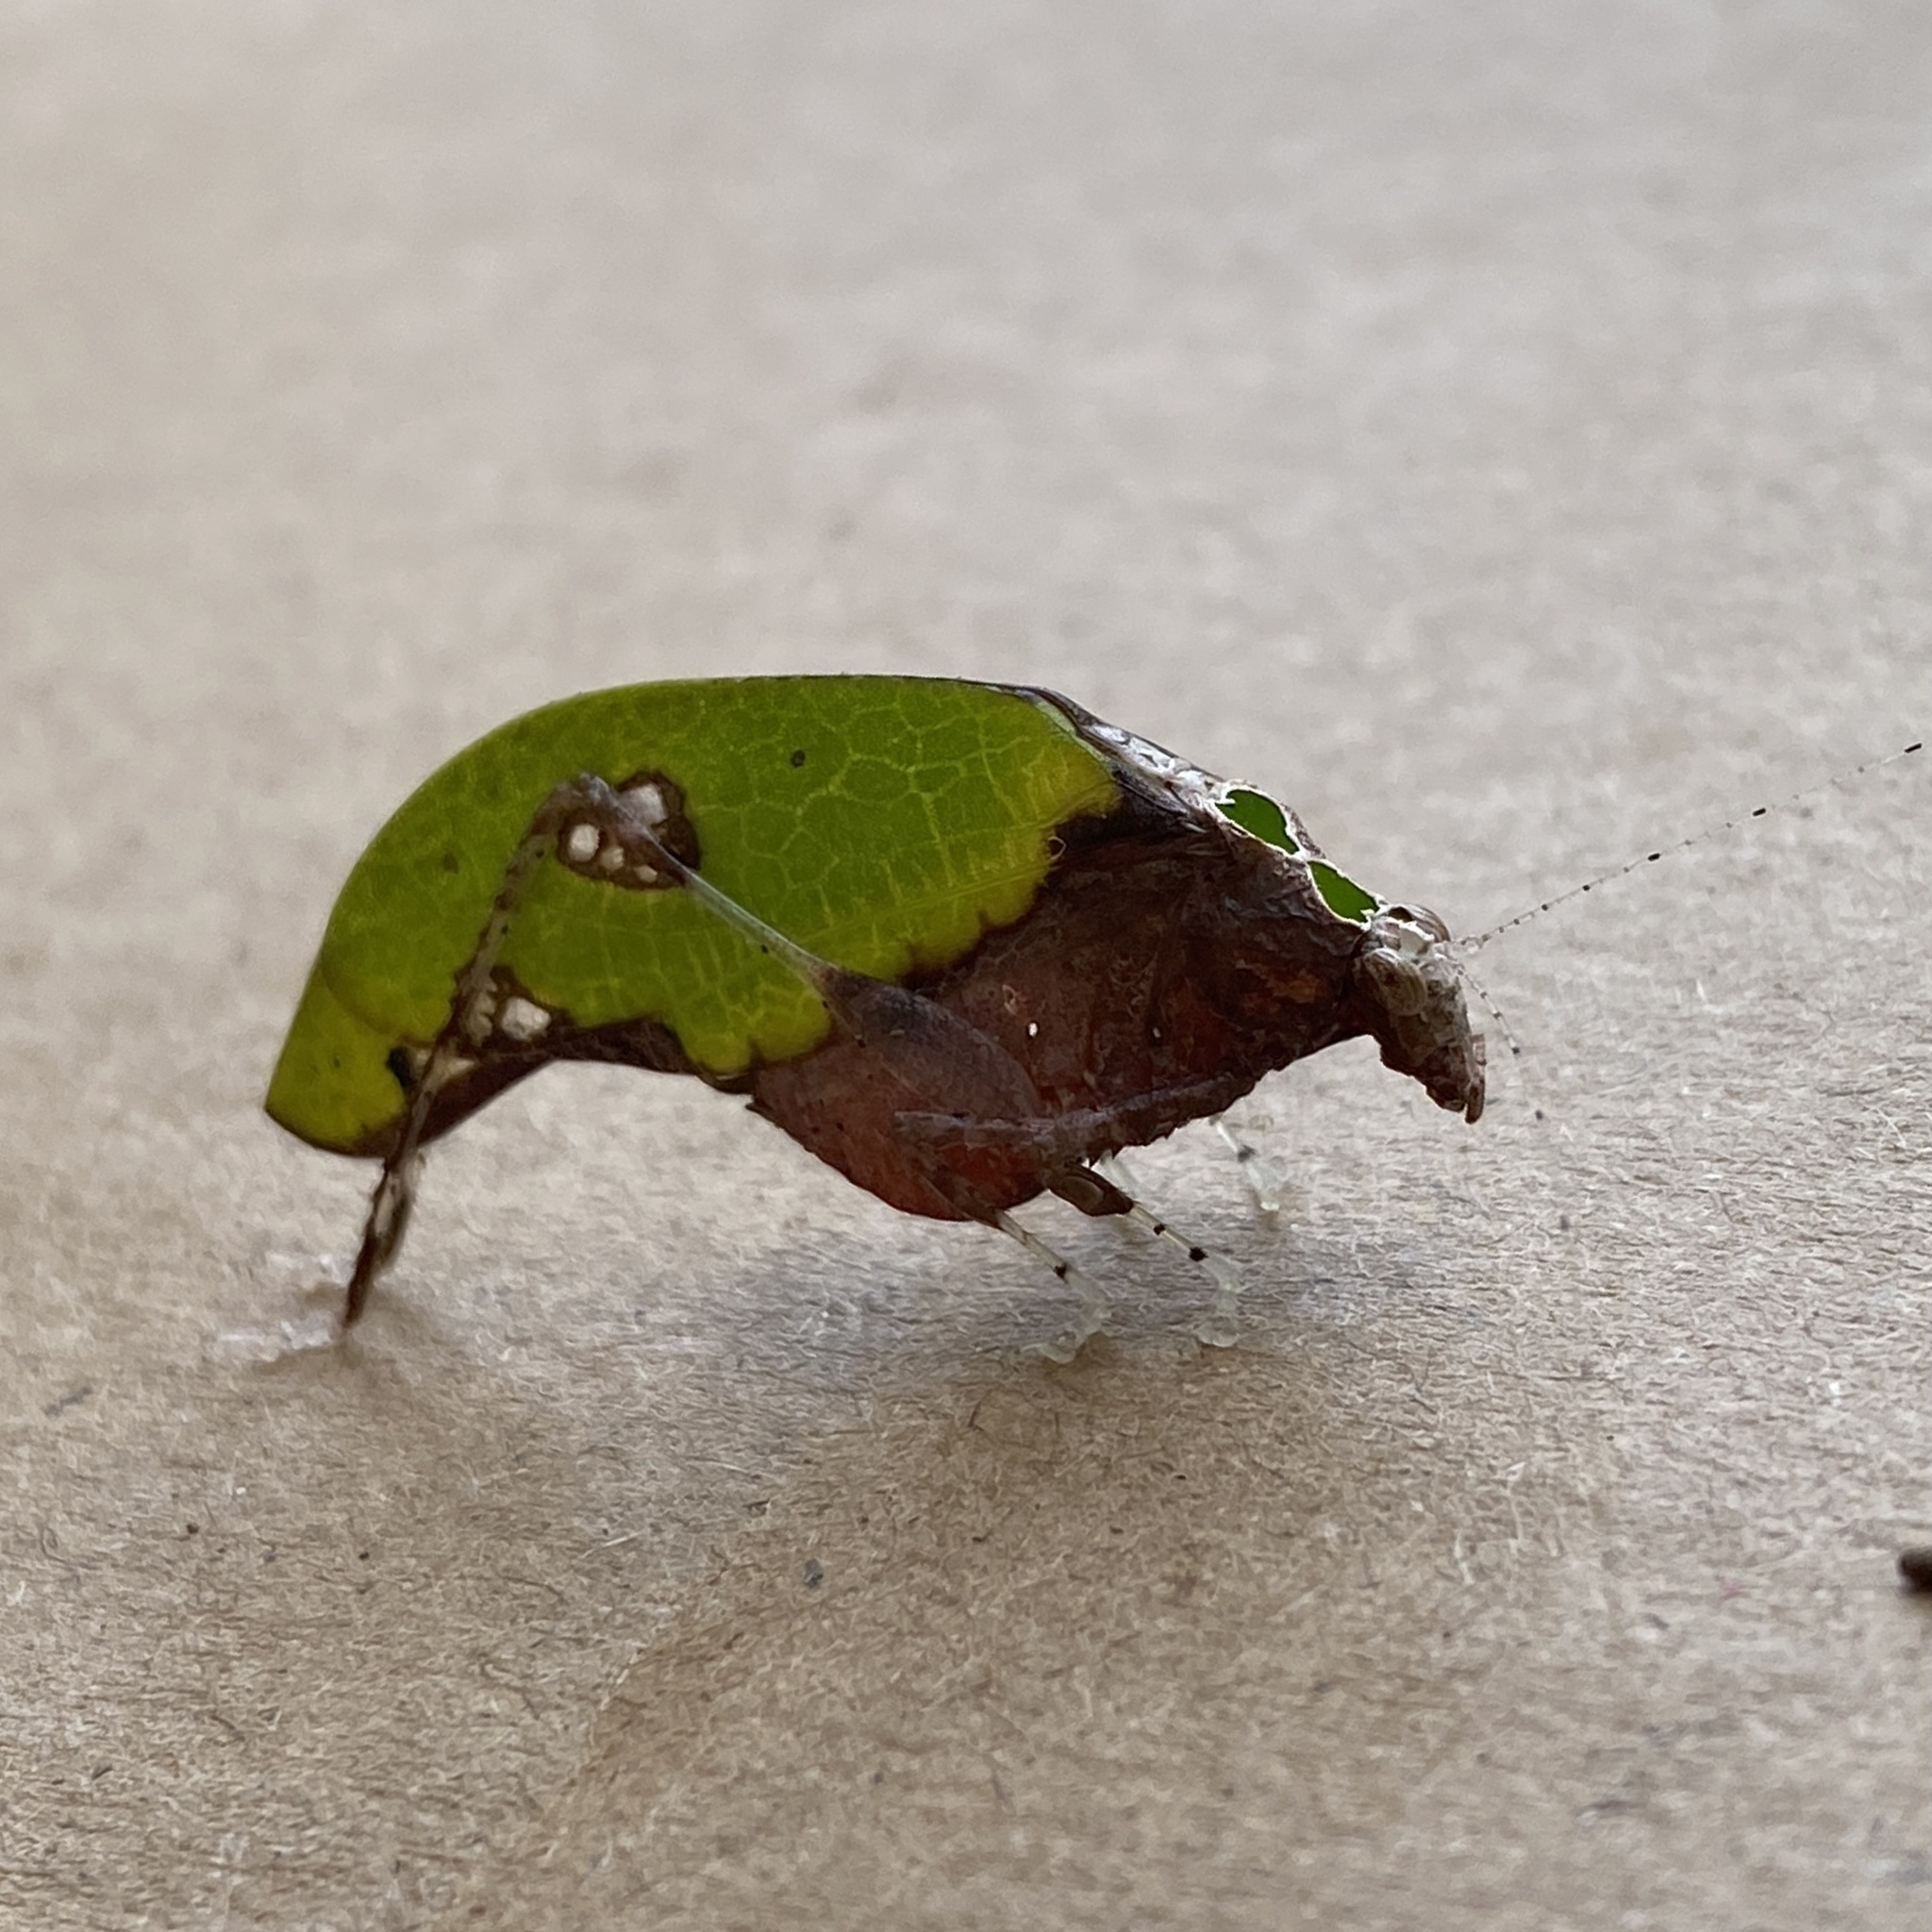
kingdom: Animalia
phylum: Arthropoda
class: Insecta
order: Orthoptera
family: Tettigoniidae
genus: Pycnopalpa
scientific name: Pycnopalpa bicordata
